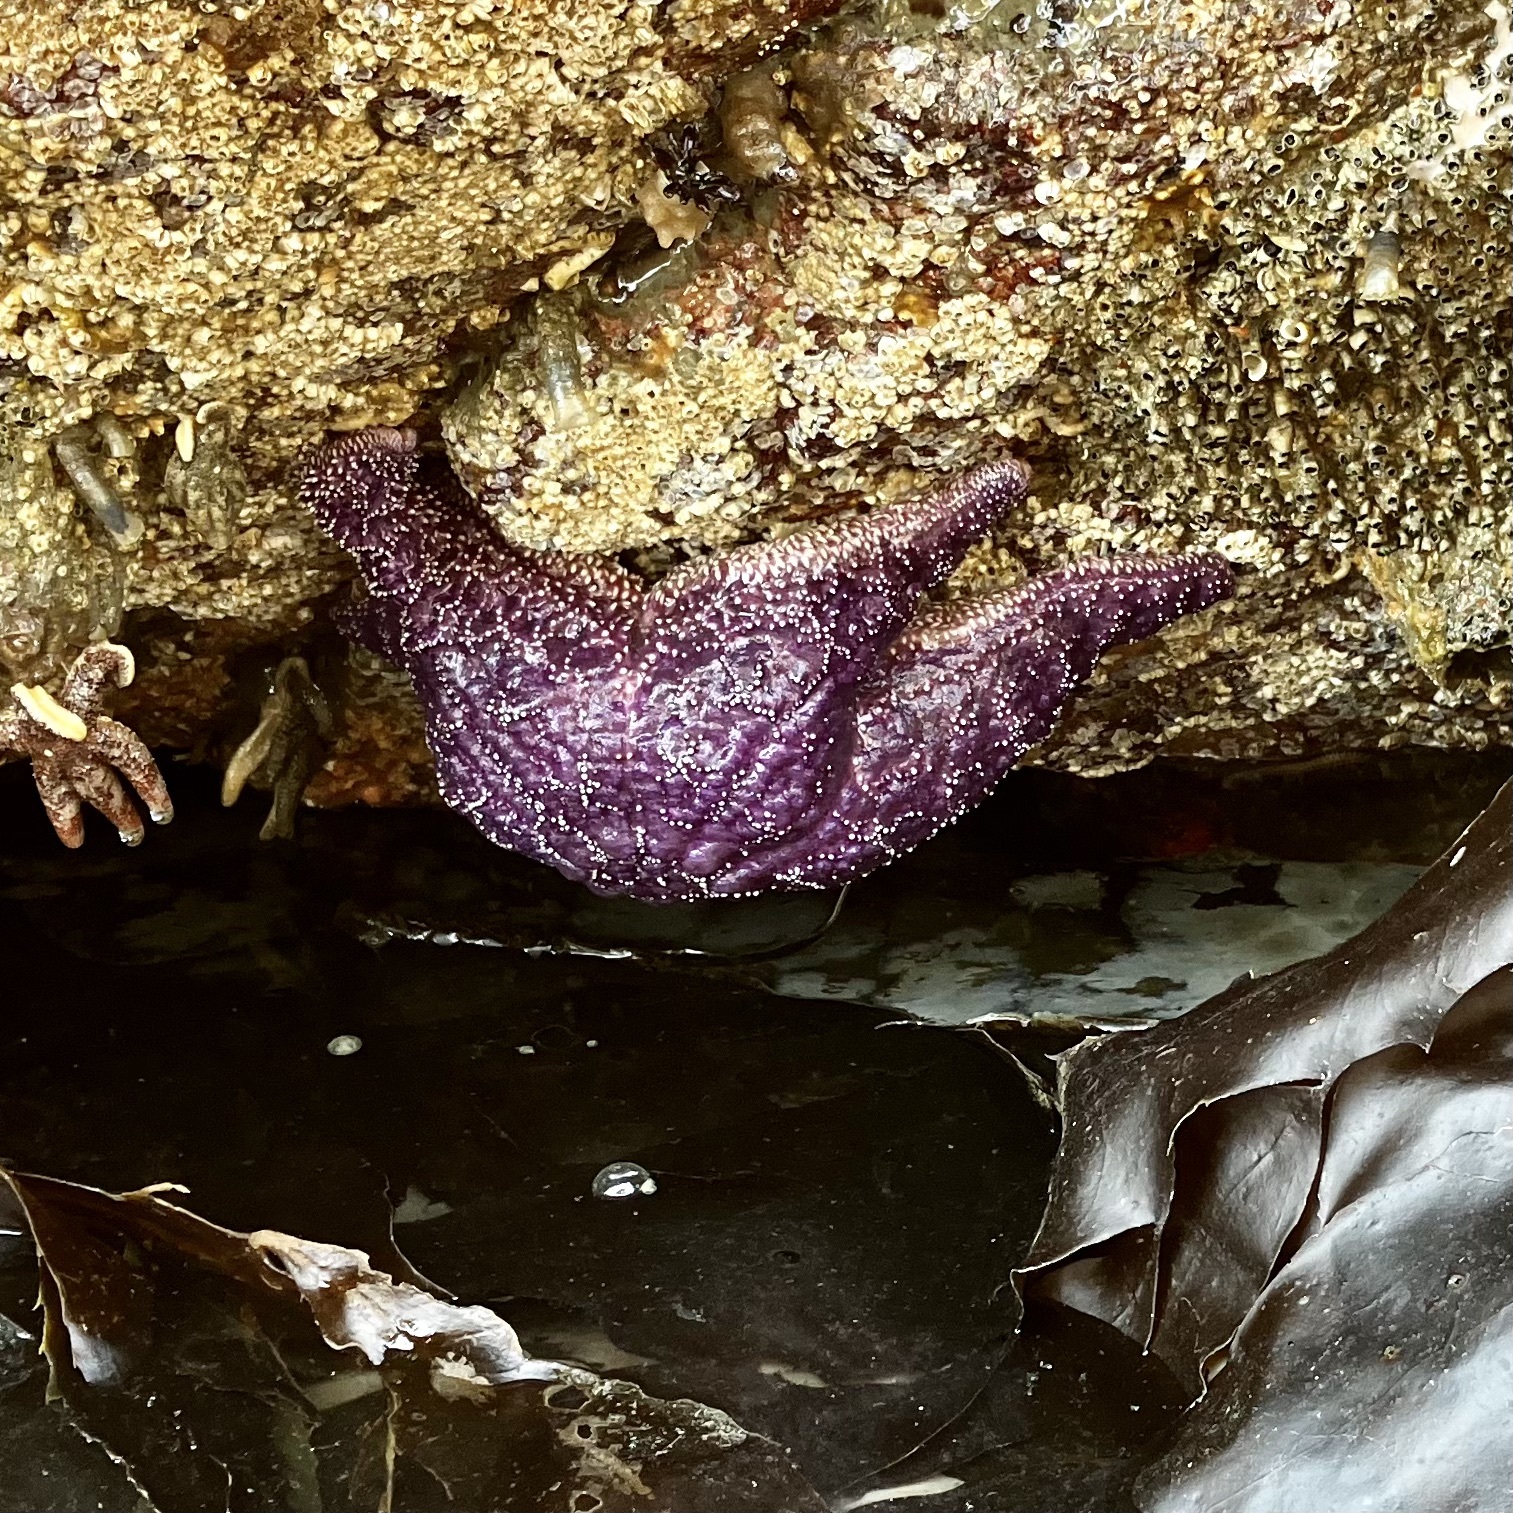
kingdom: Animalia
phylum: Echinodermata
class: Asteroidea
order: Forcipulatida
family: Asteriidae
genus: Pisaster
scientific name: Pisaster ochraceus
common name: Ochre stars
